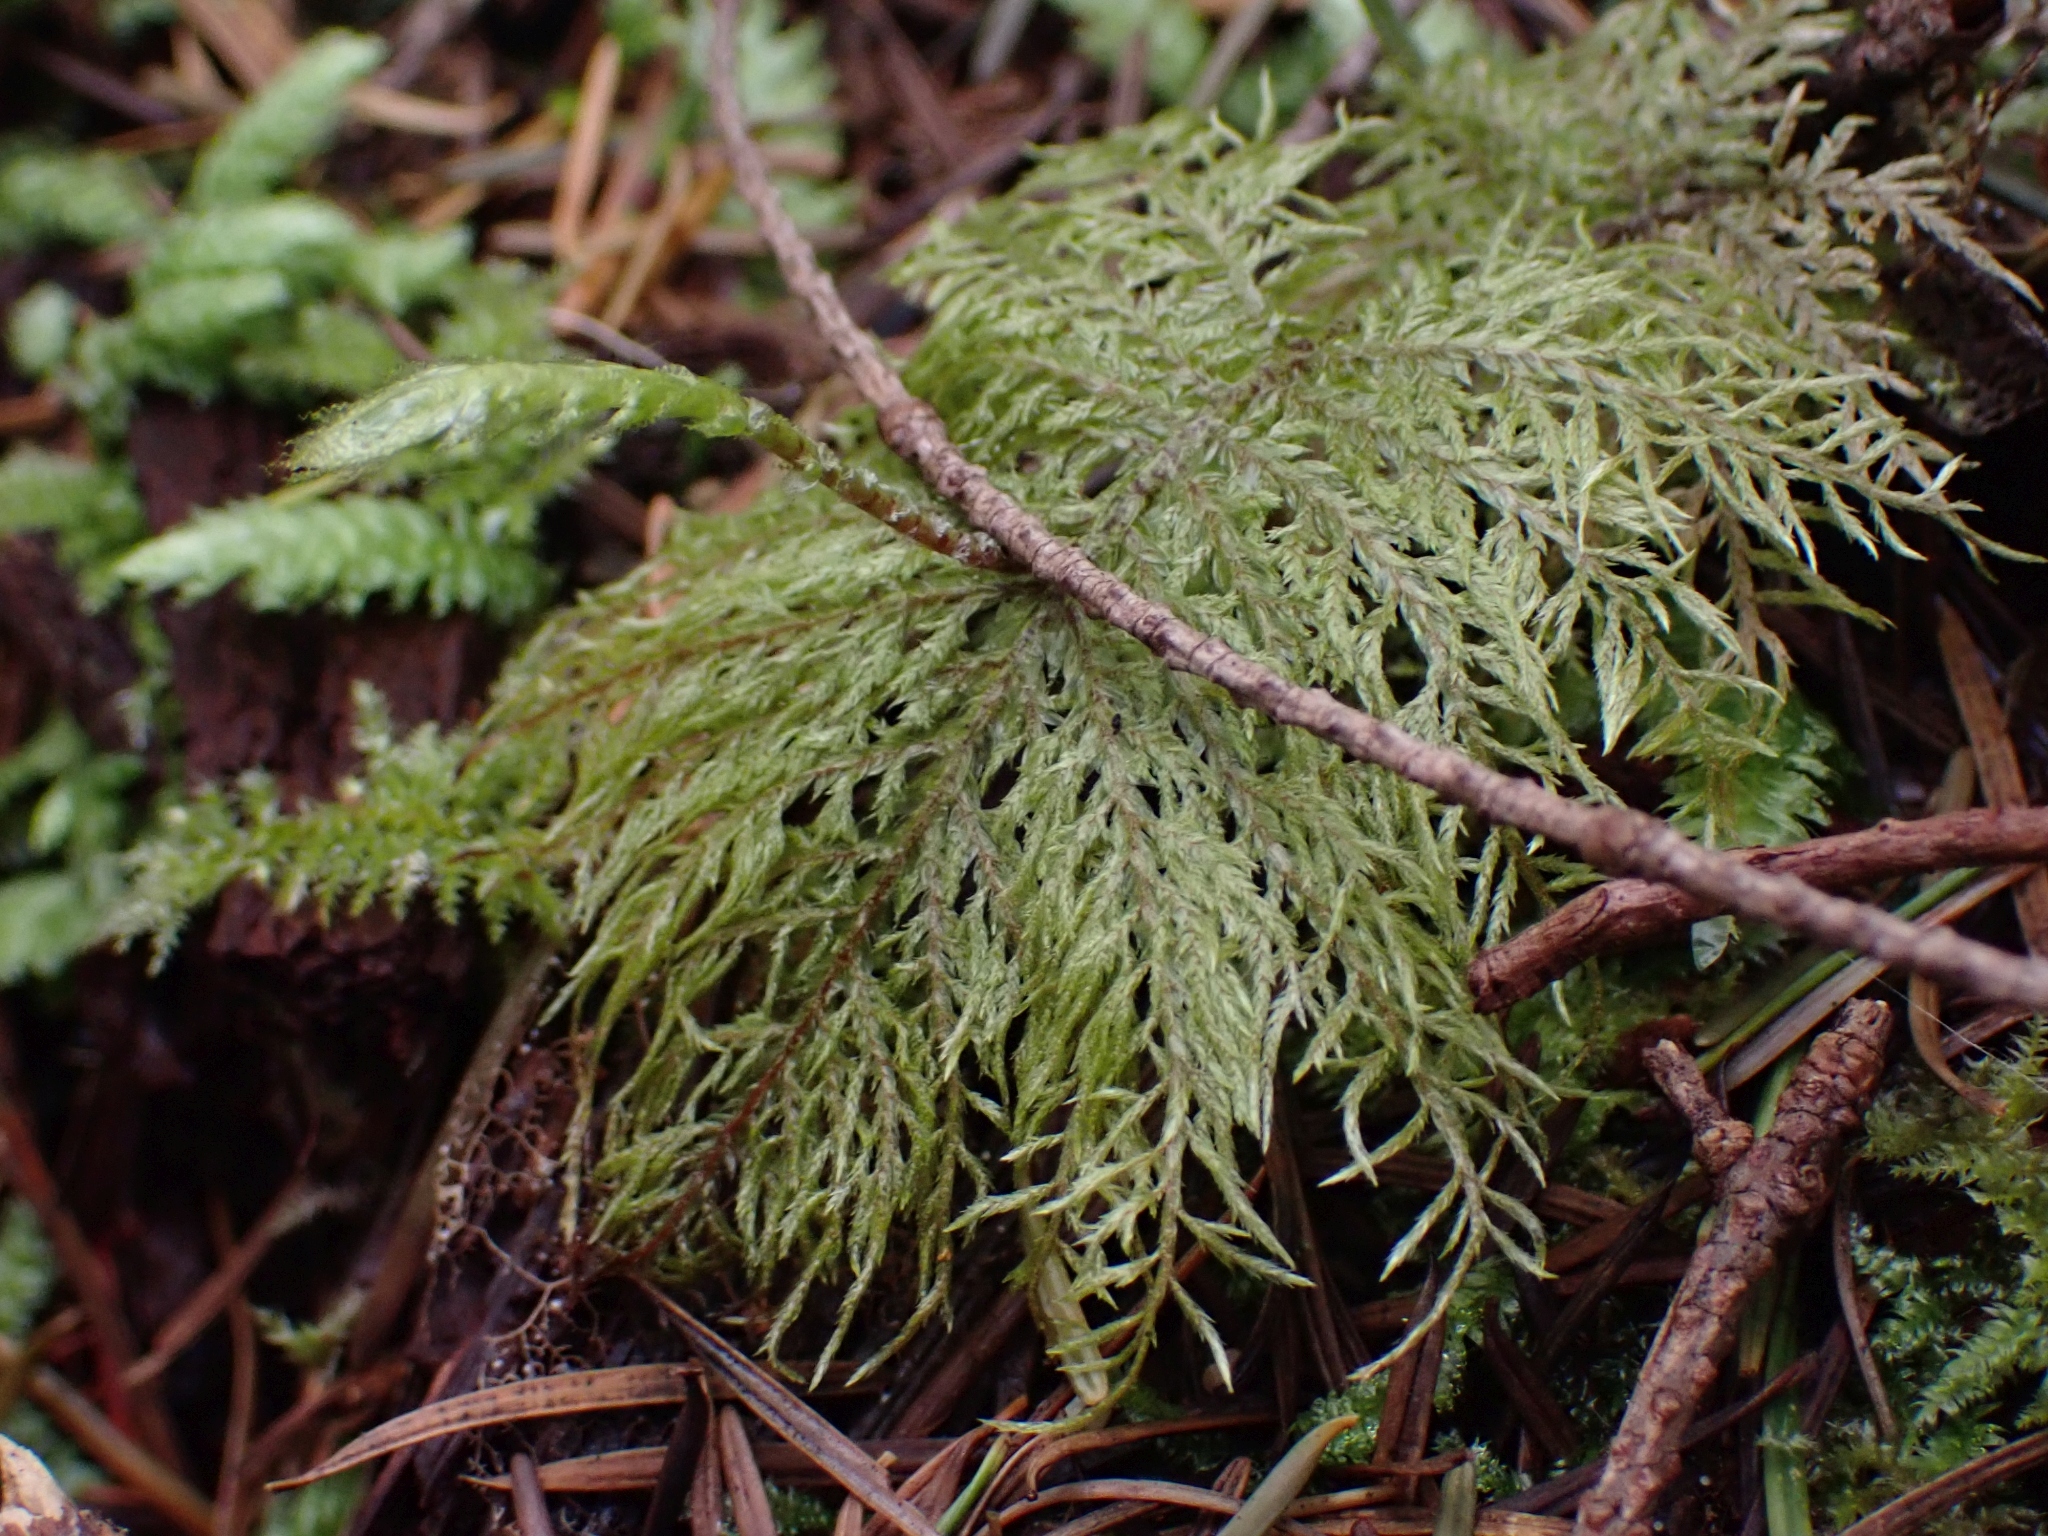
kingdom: Plantae
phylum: Bryophyta
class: Bryopsida
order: Hypnales
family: Hylocomiaceae
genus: Hylocomium
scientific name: Hylocomium splendens
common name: Stairstep moss
